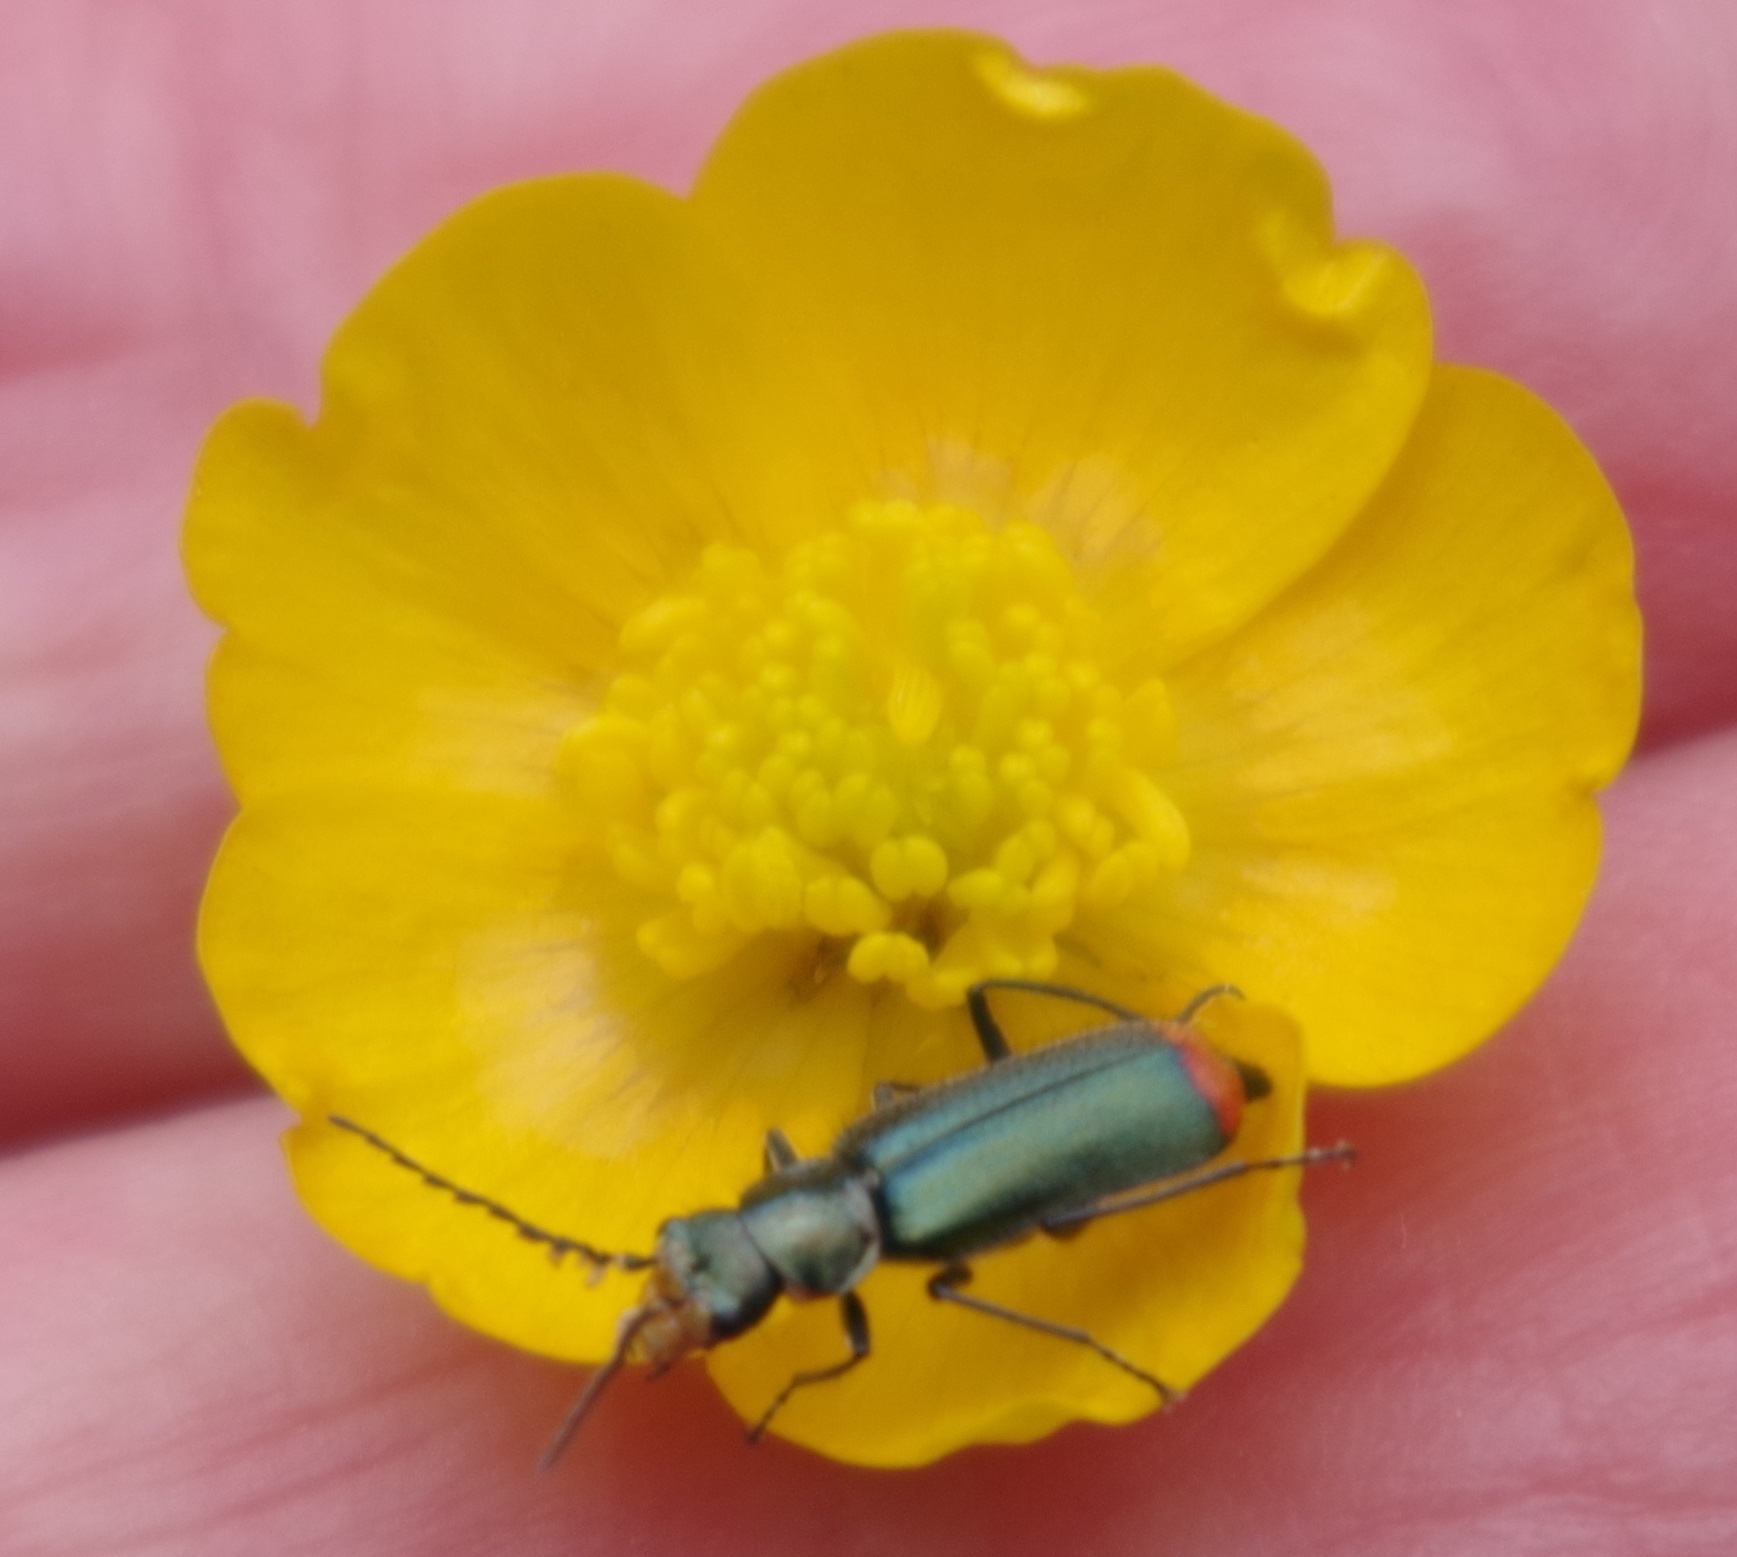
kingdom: Animalia
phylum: Arthropoda
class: Insecta
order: Coleoptera
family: Melyridae
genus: Malachius
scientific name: Malachius bipustulatus
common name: Malachite beetle
